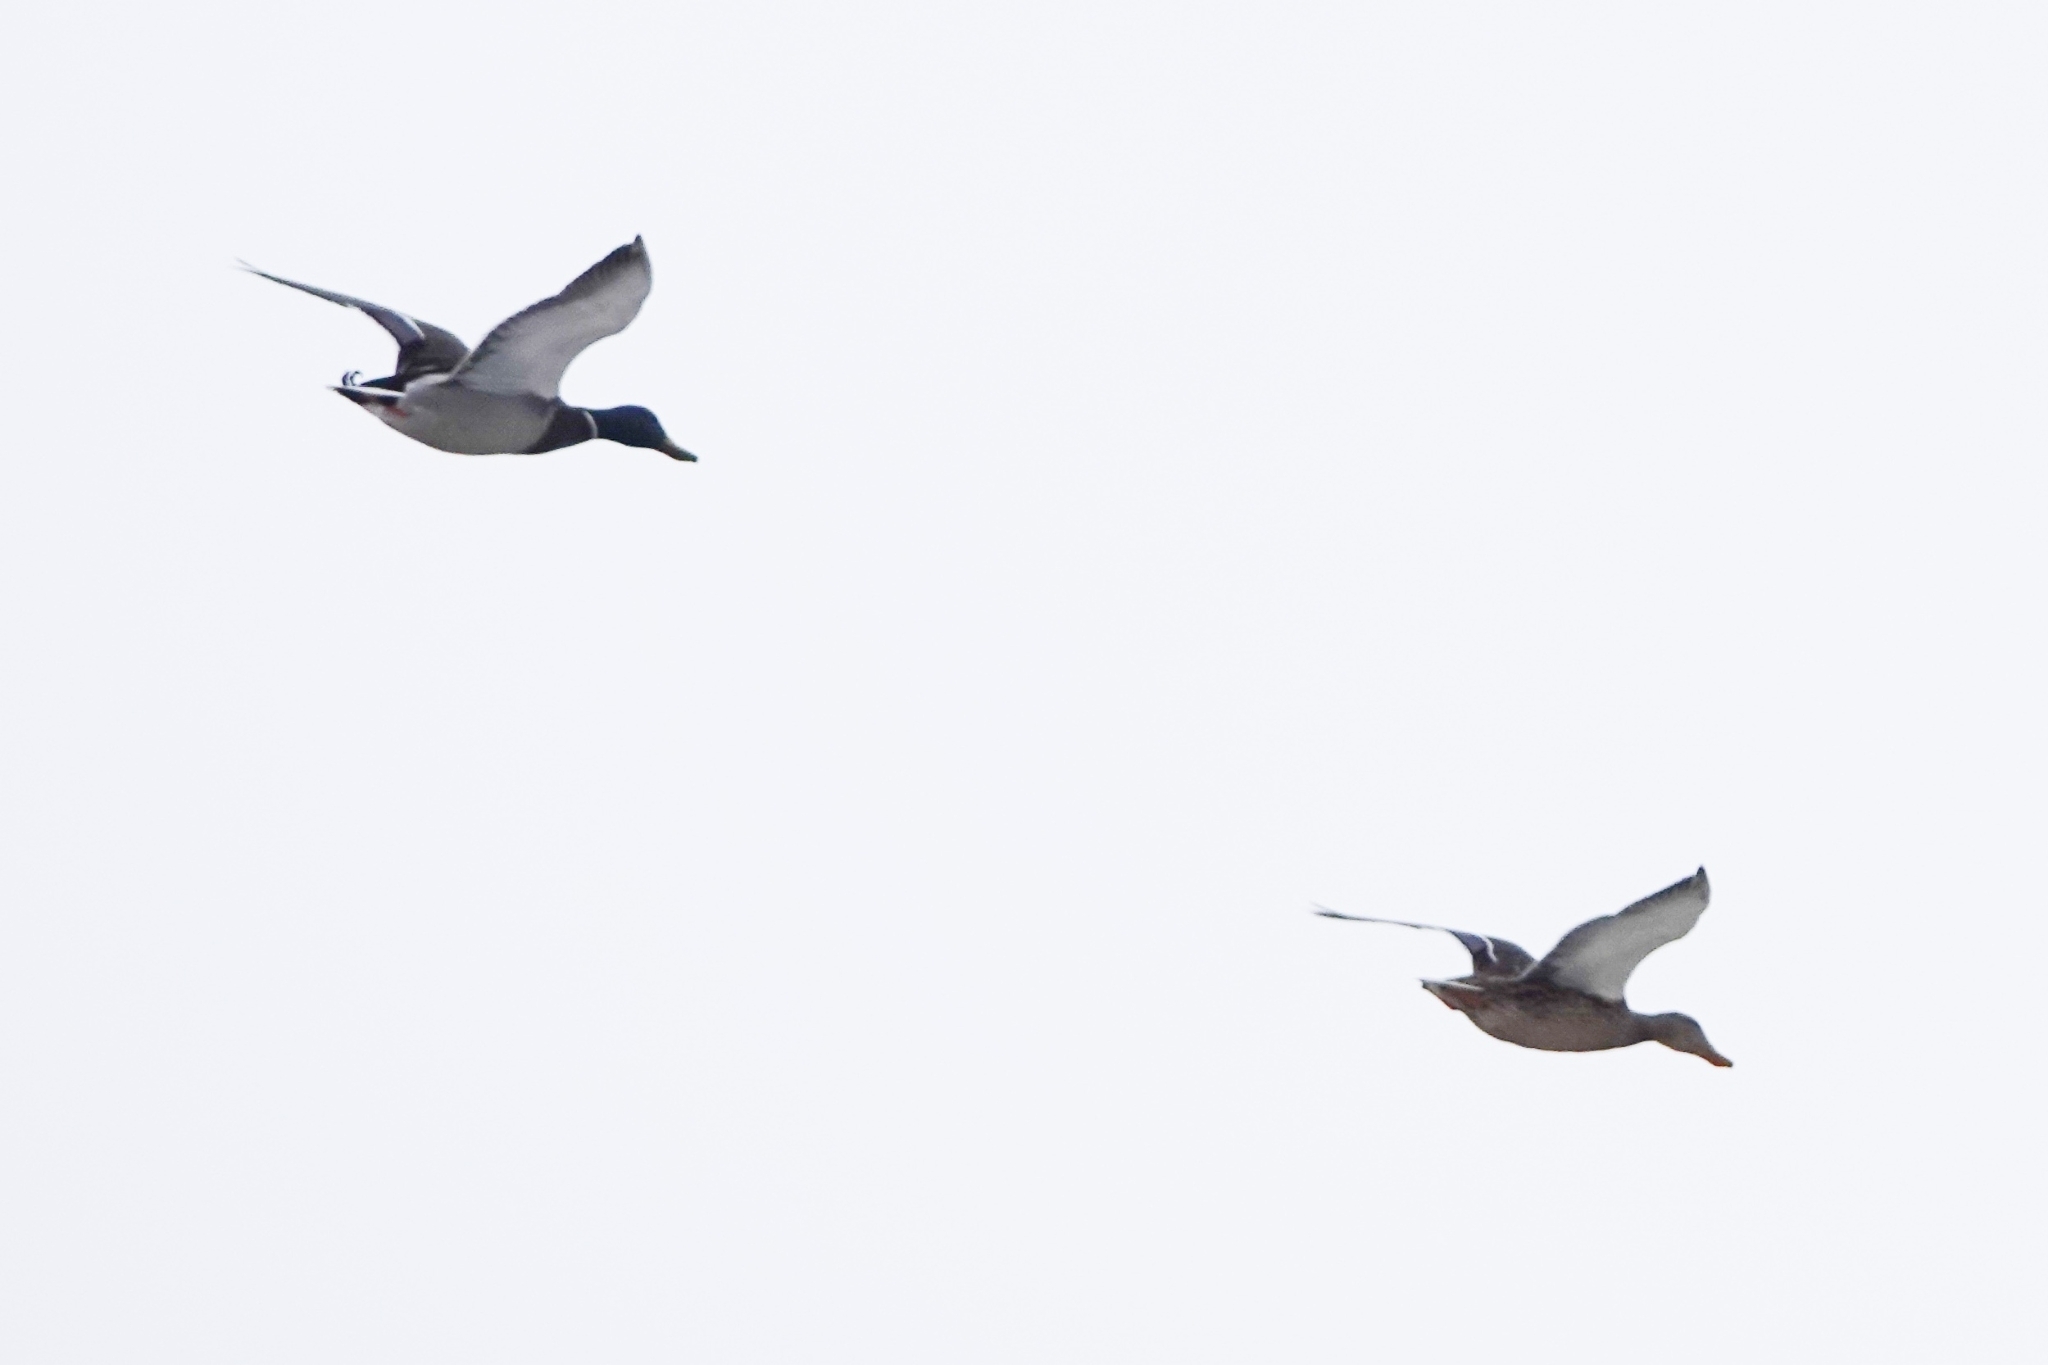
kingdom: Animalia
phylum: Chordata
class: Aves
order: Anseriformes
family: Anatidae
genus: Anas
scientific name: Anas platyrhynchos
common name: Mallard
